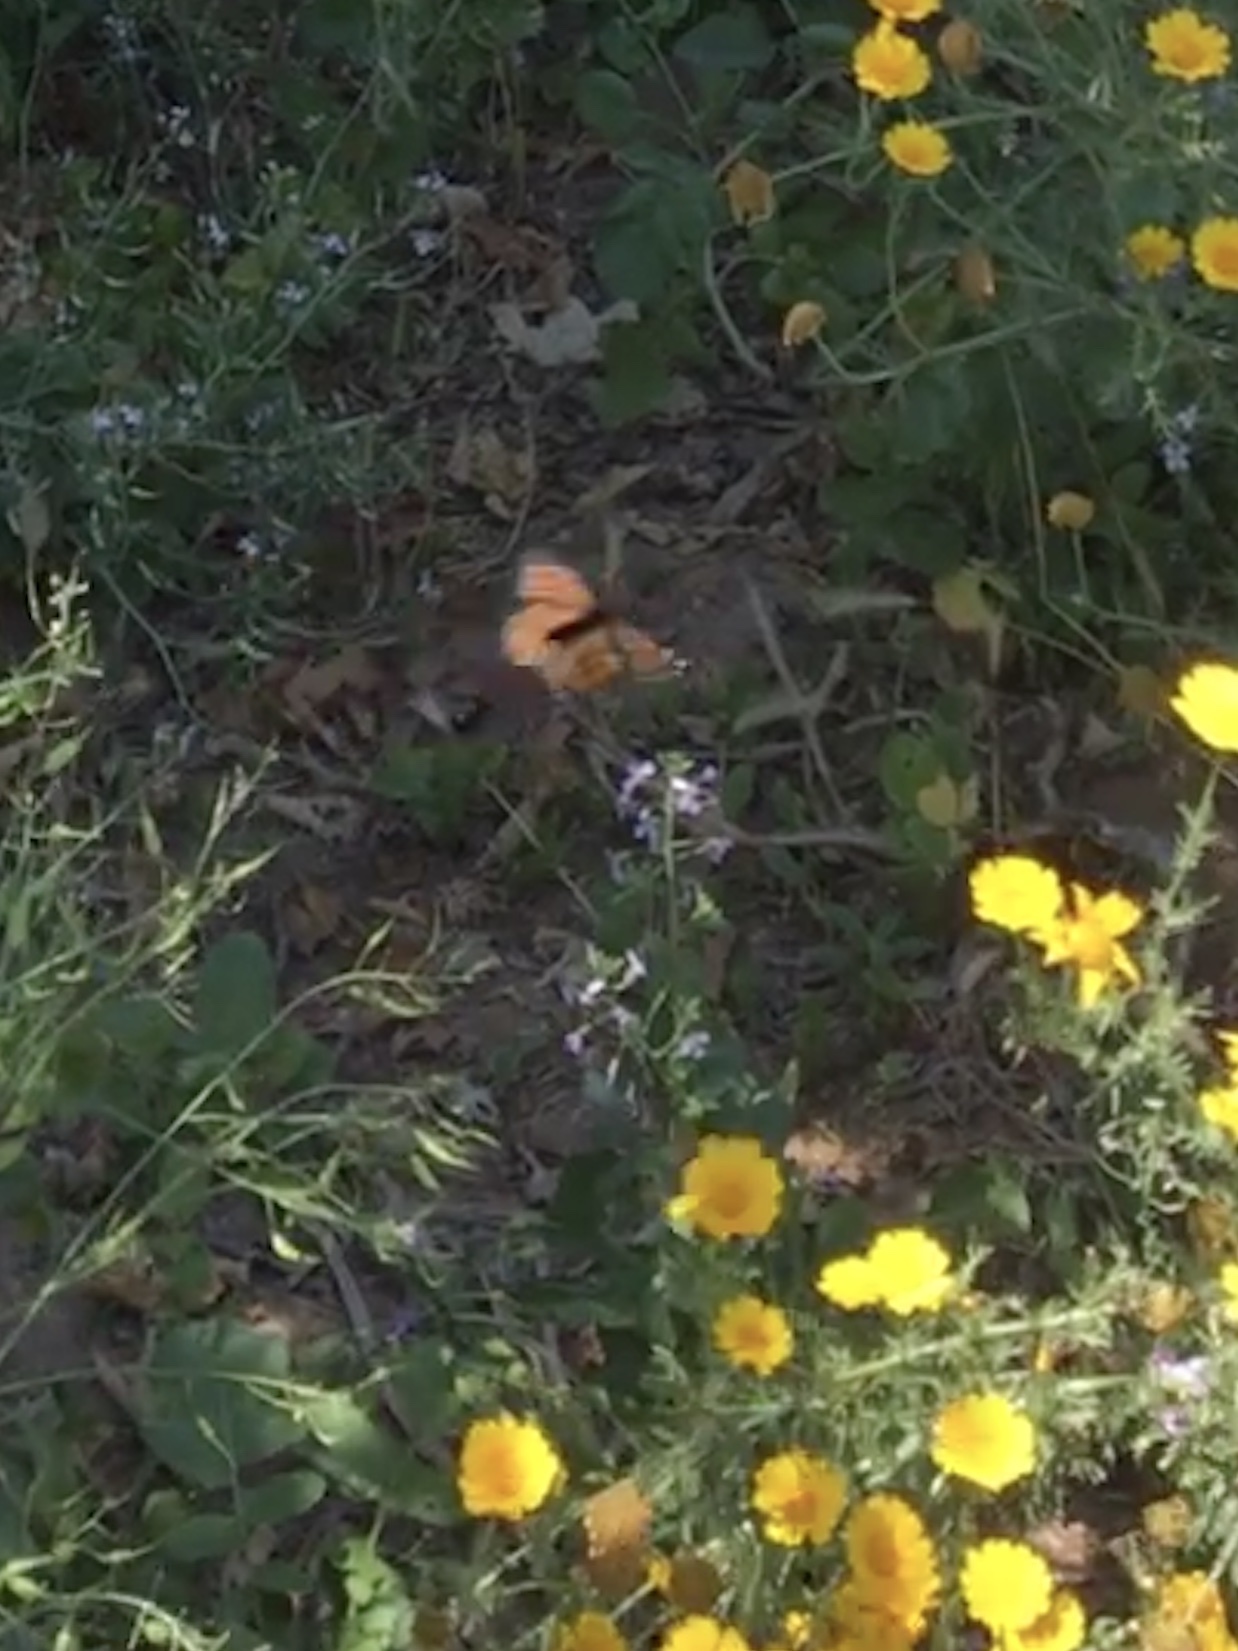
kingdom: Animalia
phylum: Arthropoda
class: Insecta
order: Lepidoptera
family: Nymphalidae
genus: Danaus
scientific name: Danaus plexippus
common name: Monarch
